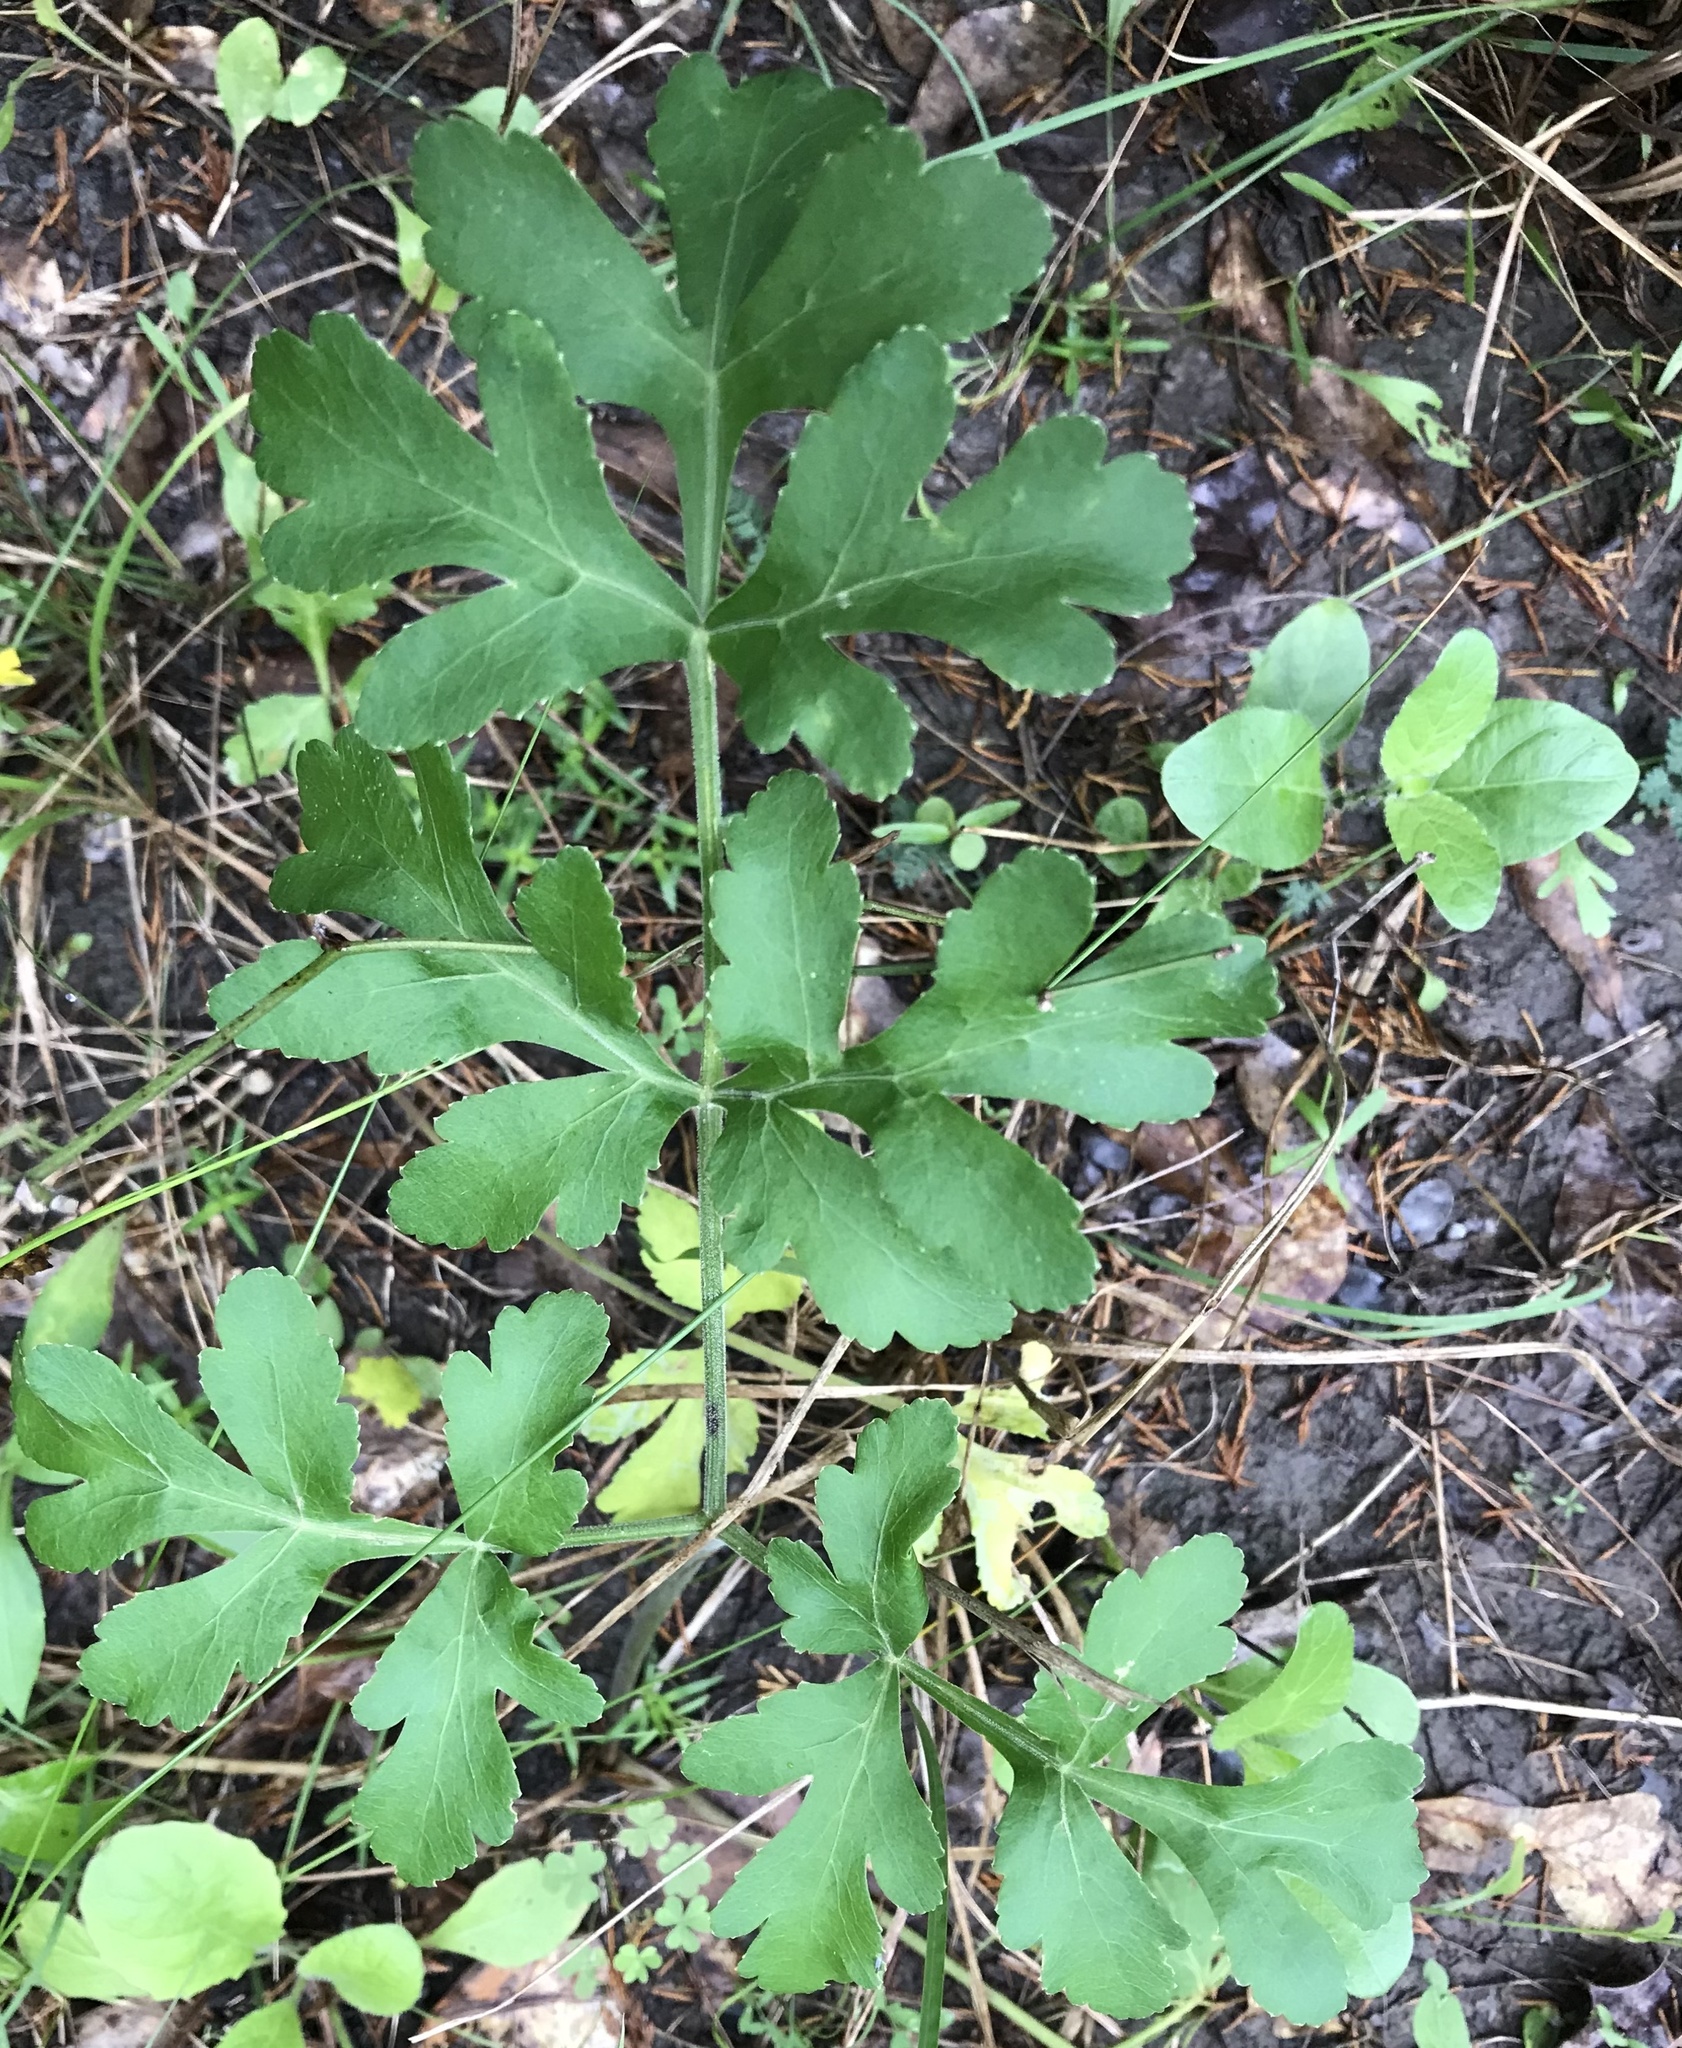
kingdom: Plantae
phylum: Tracheophyta
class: Magnoliopsida
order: Apiales
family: Apiaceae
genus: Polytaenia
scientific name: Polytaenia texana
